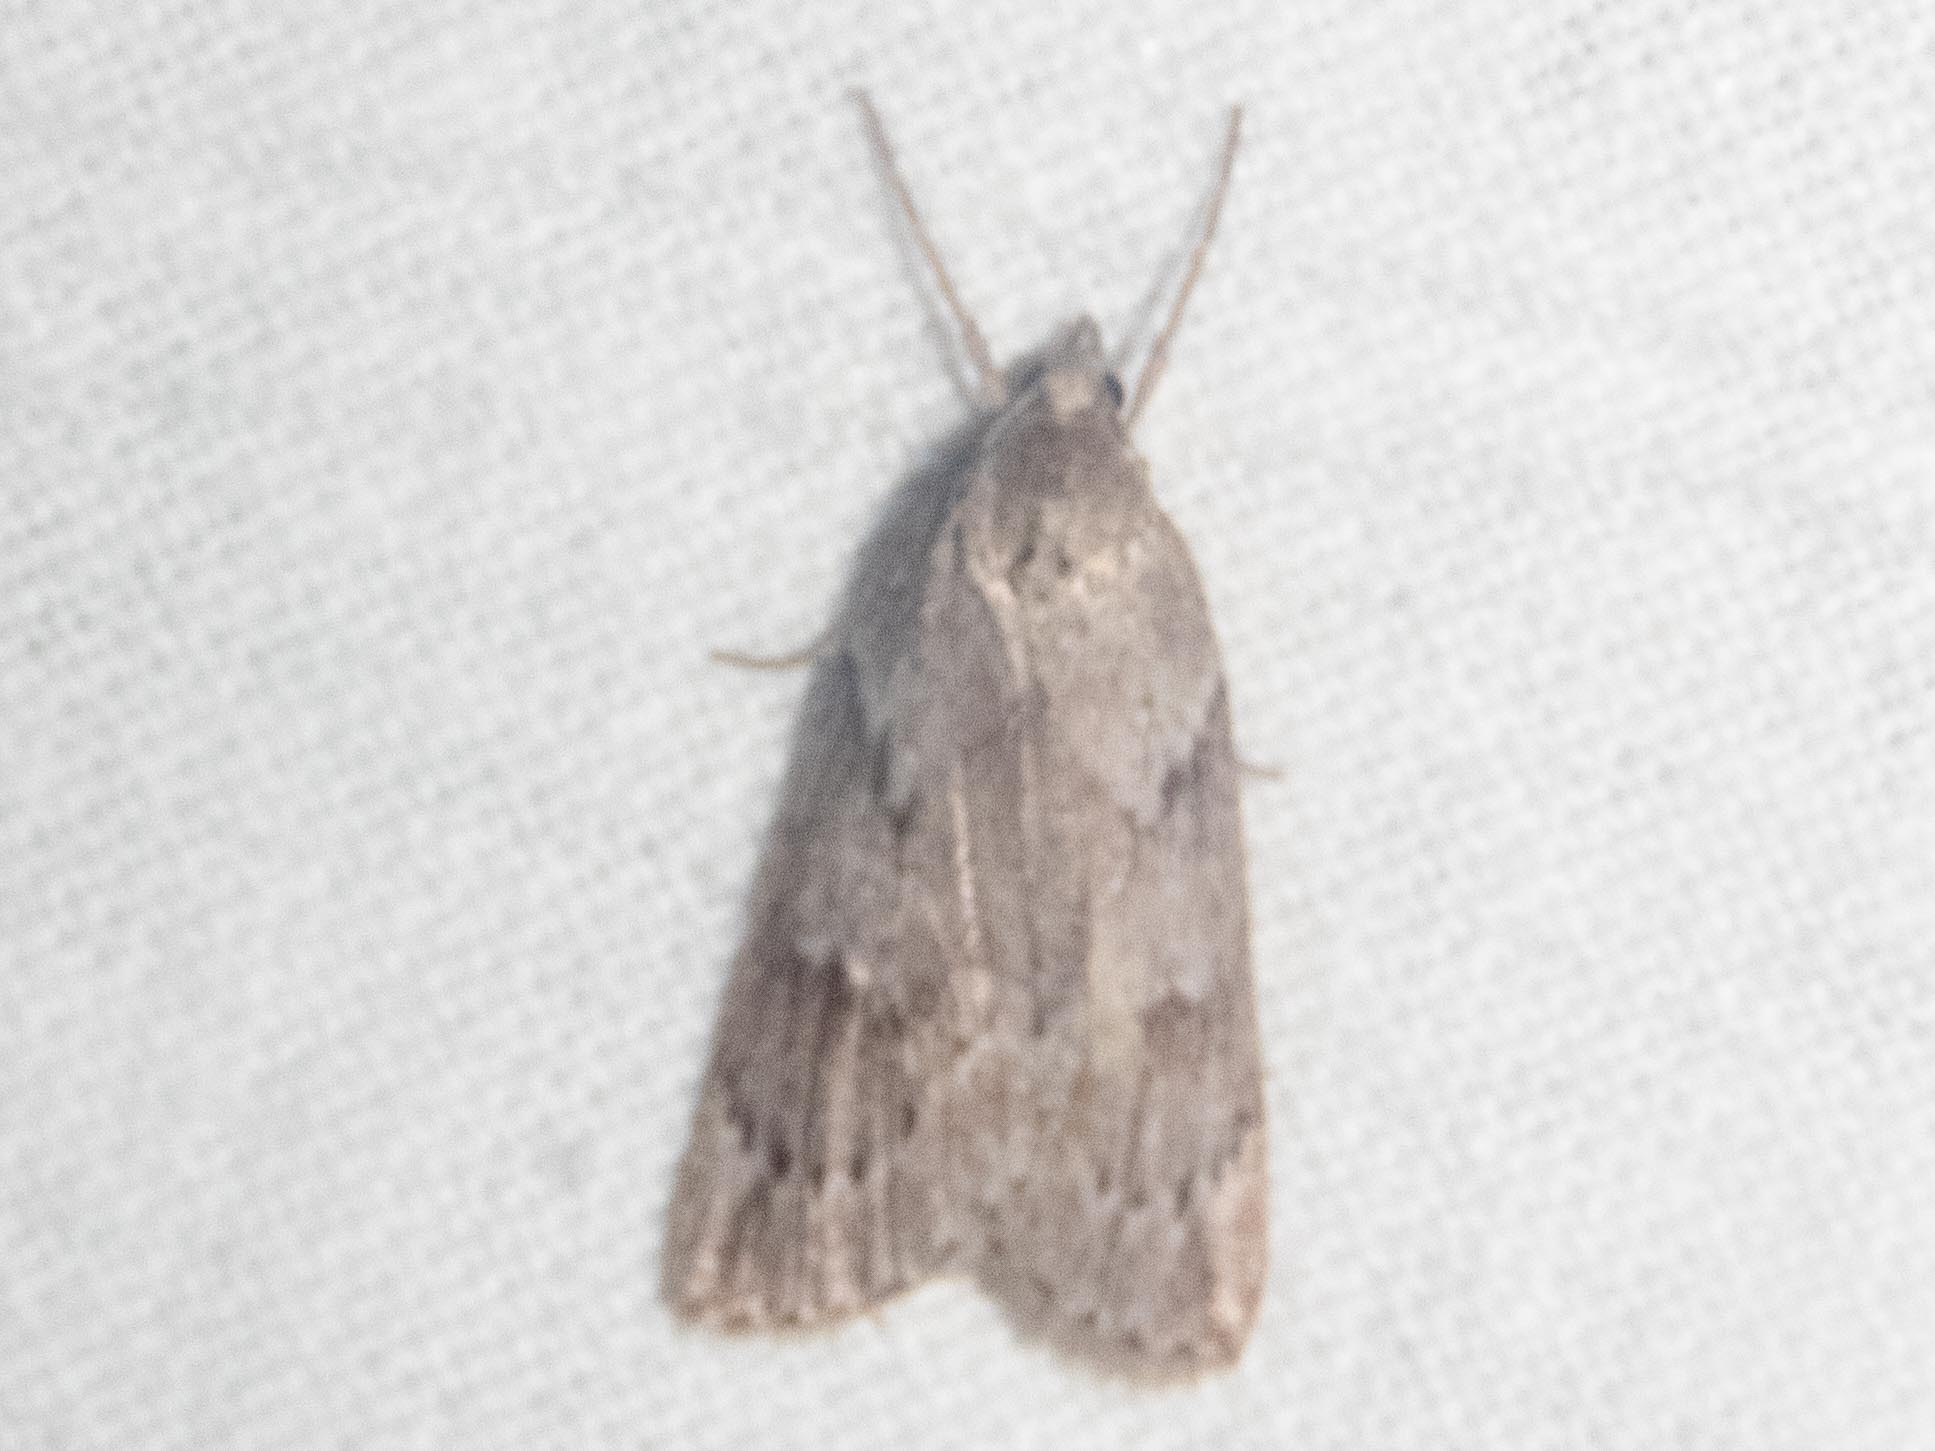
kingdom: Animalia
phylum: Arthropoda
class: Insecta
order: Lepidoptera
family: Geometridae
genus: Pachycnemia
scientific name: Pachycnemia hippocastanaria
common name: Horse chestnut
